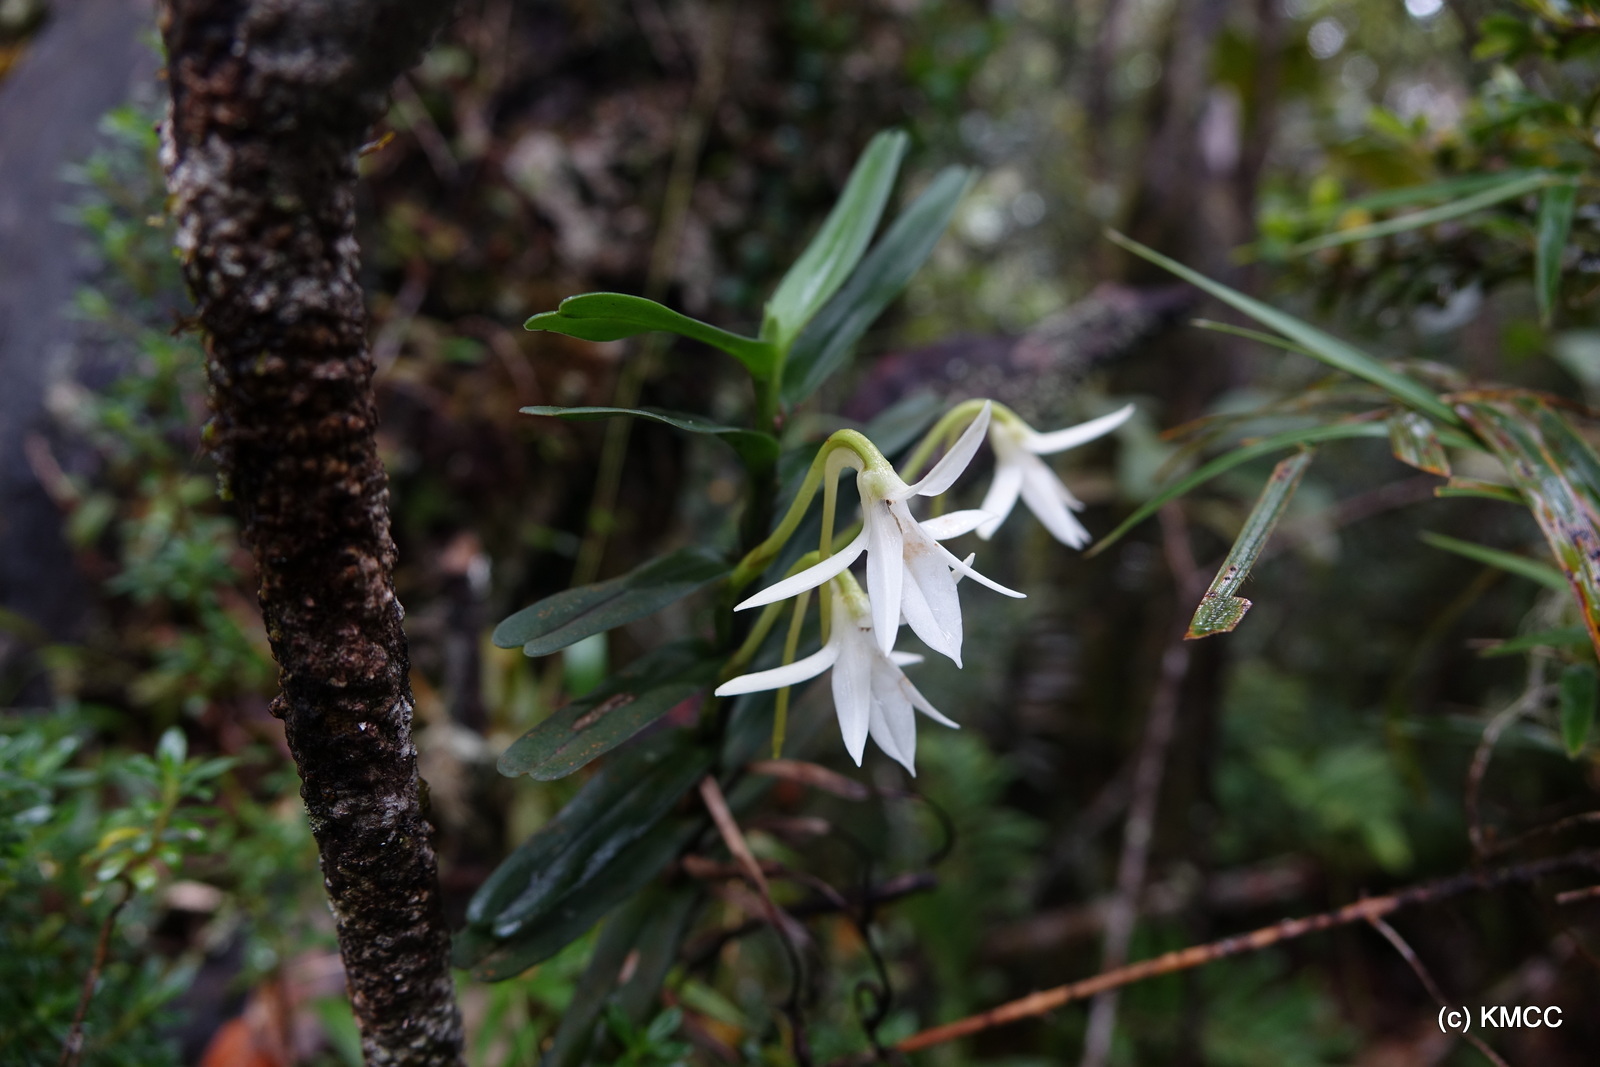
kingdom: Plantae
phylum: Tracheophyta
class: Liliopsida
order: Asparagales
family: Orchidaceae
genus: Jumellea
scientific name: Jumellea francoisii
